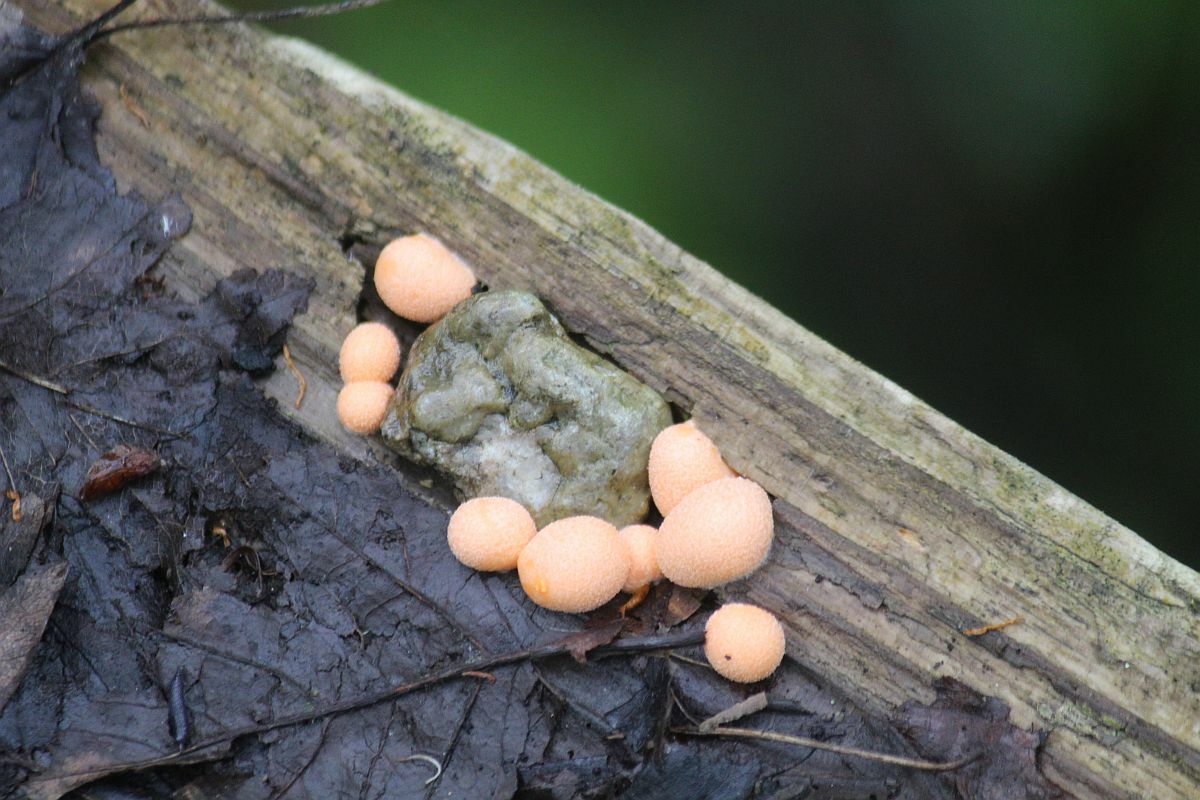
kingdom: Protozoa
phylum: Mycetozoa
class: Myxomycetes
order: Cribrariales
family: Tubiferaceae
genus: Lycogala
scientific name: Lycogala epidendrum
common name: Wolf's milk
